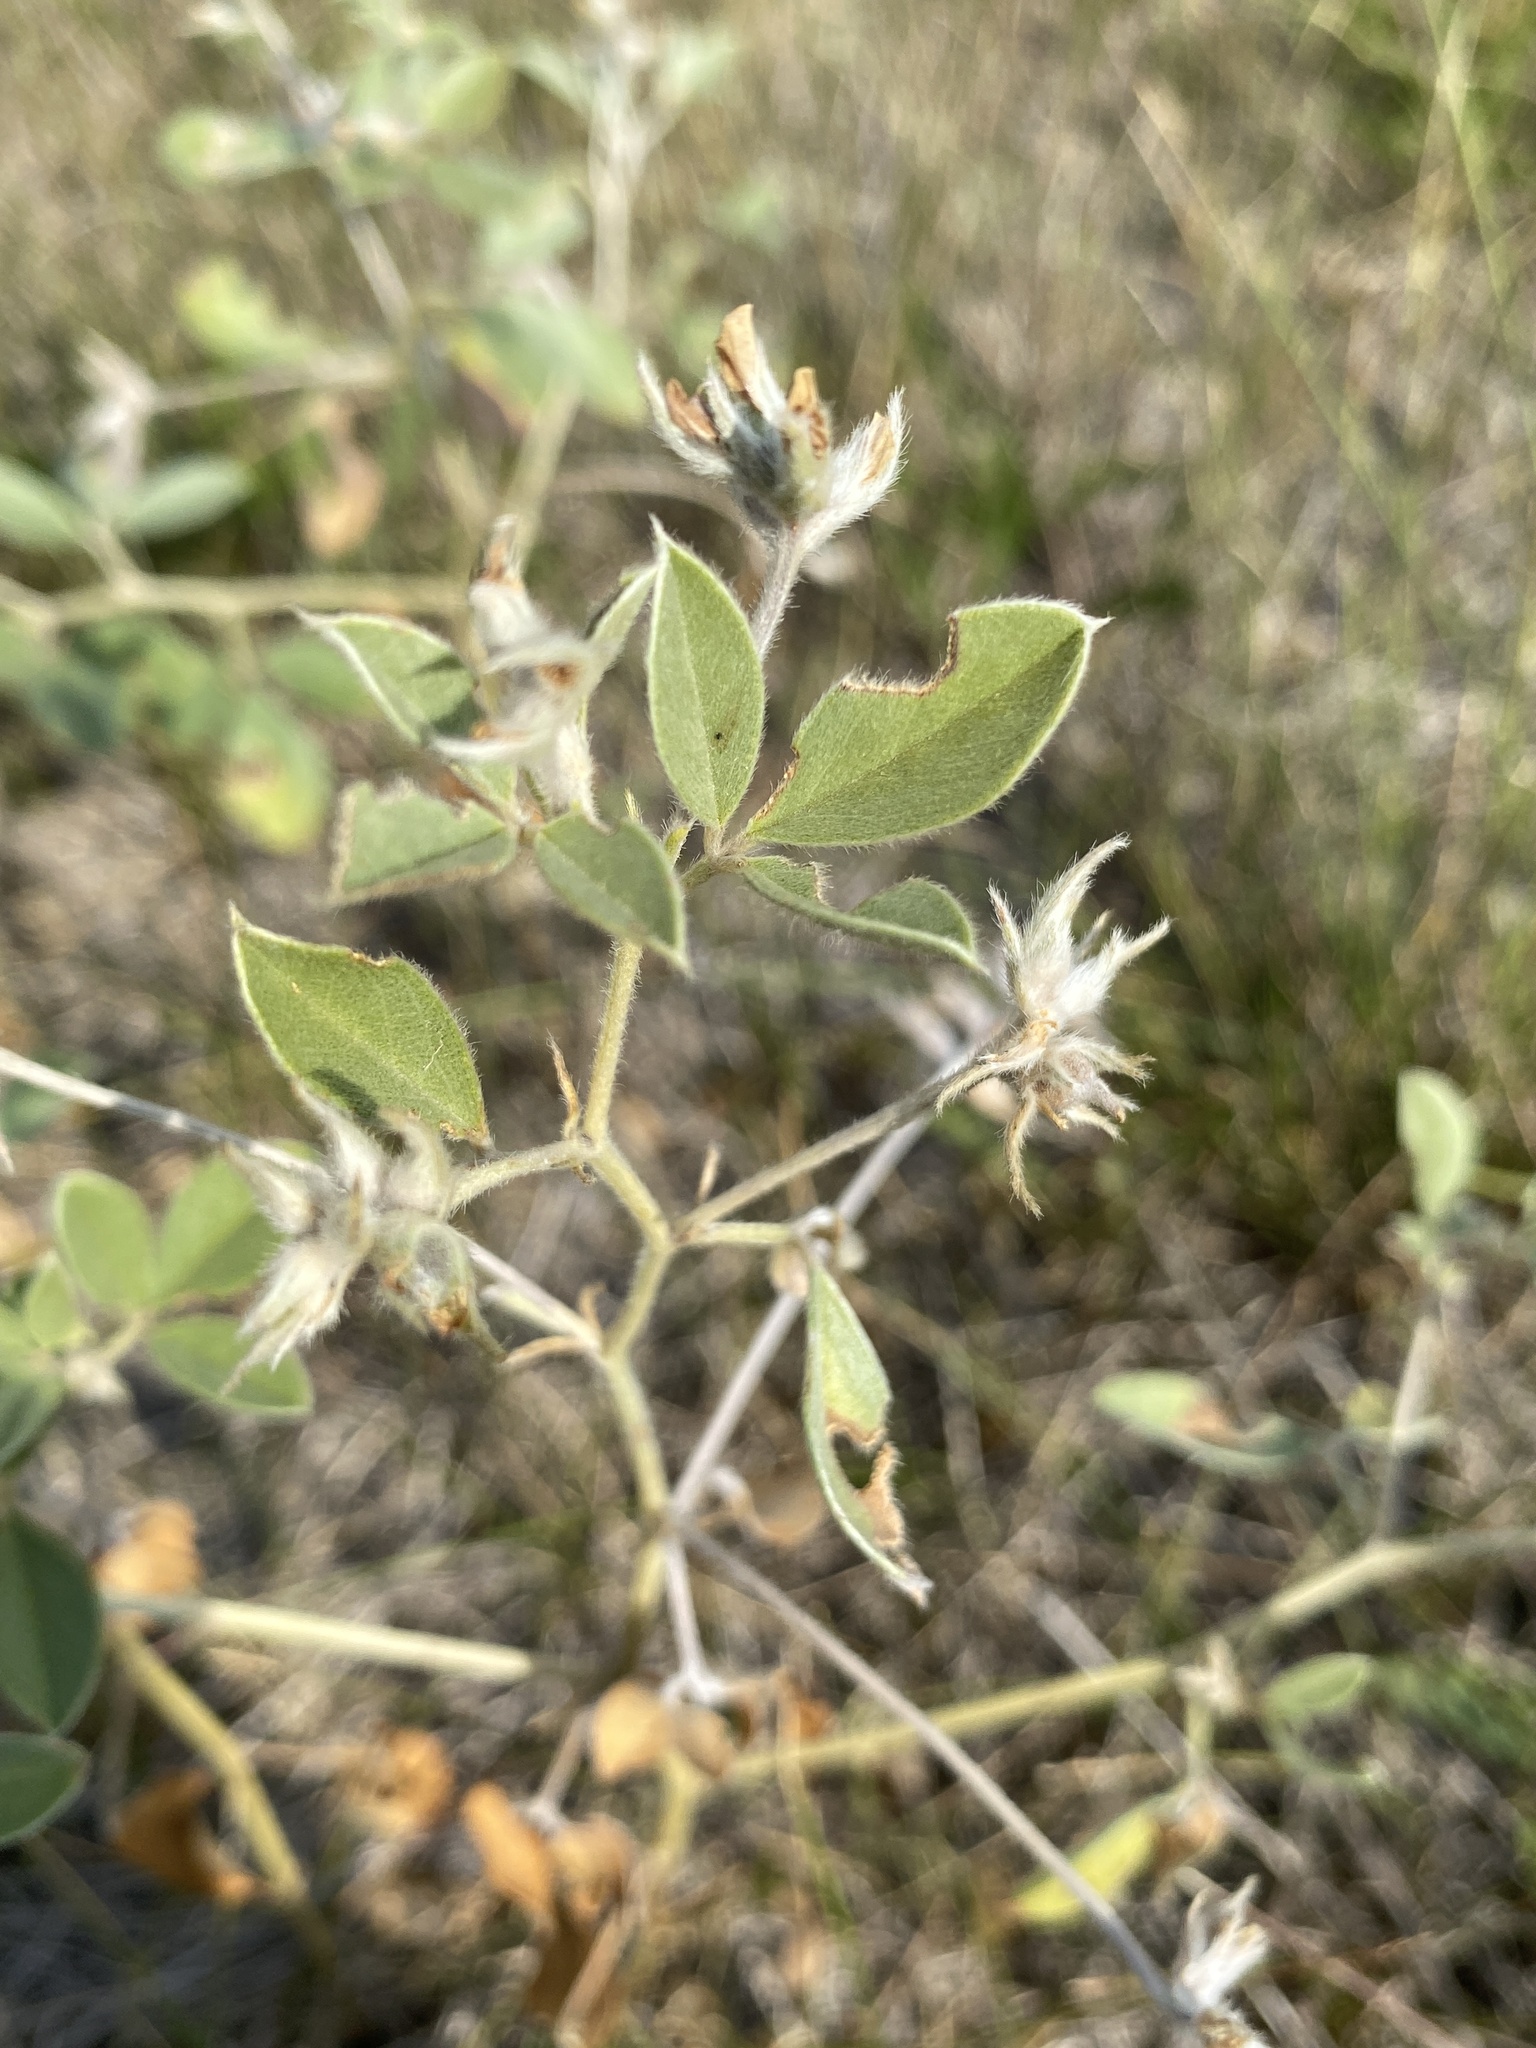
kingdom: Plantae
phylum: Tracheophyta
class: Magnoliopsida
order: Fabales
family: Fabaceae
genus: Pediomelum
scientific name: Pediomelum argophyllum
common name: Silver-leaved indian breadroot
